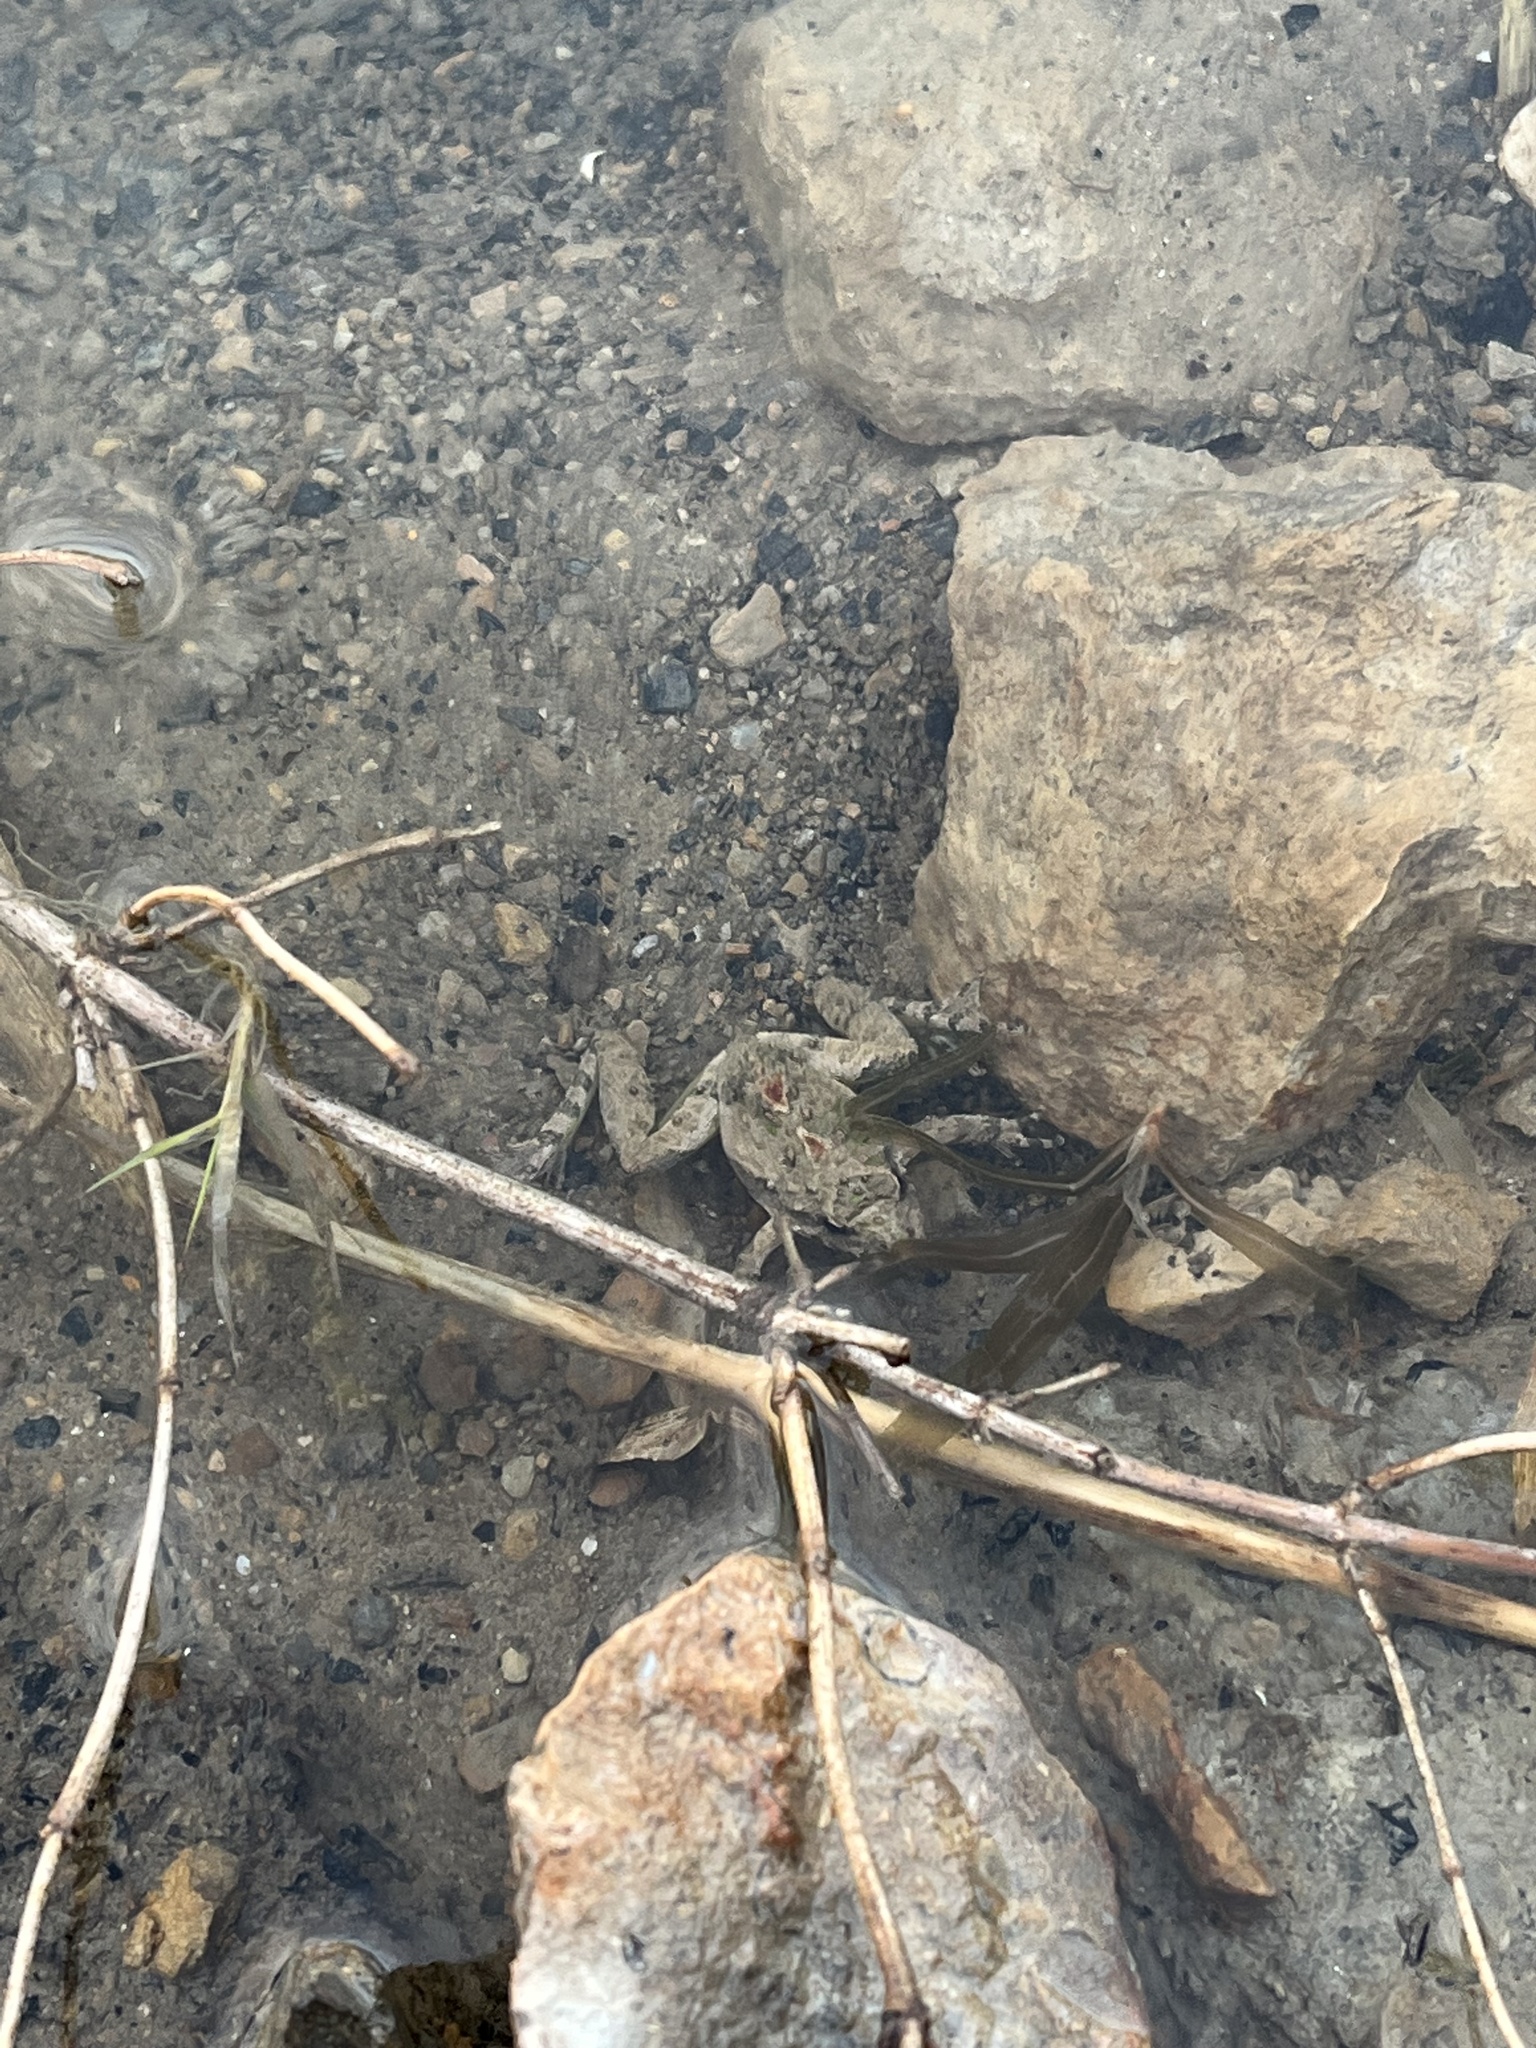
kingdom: Animalia
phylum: Chordata
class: Amphibia
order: Anura
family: Hylidae
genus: Acris
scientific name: Acris blanchardi
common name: Blanchard's cricket frog
